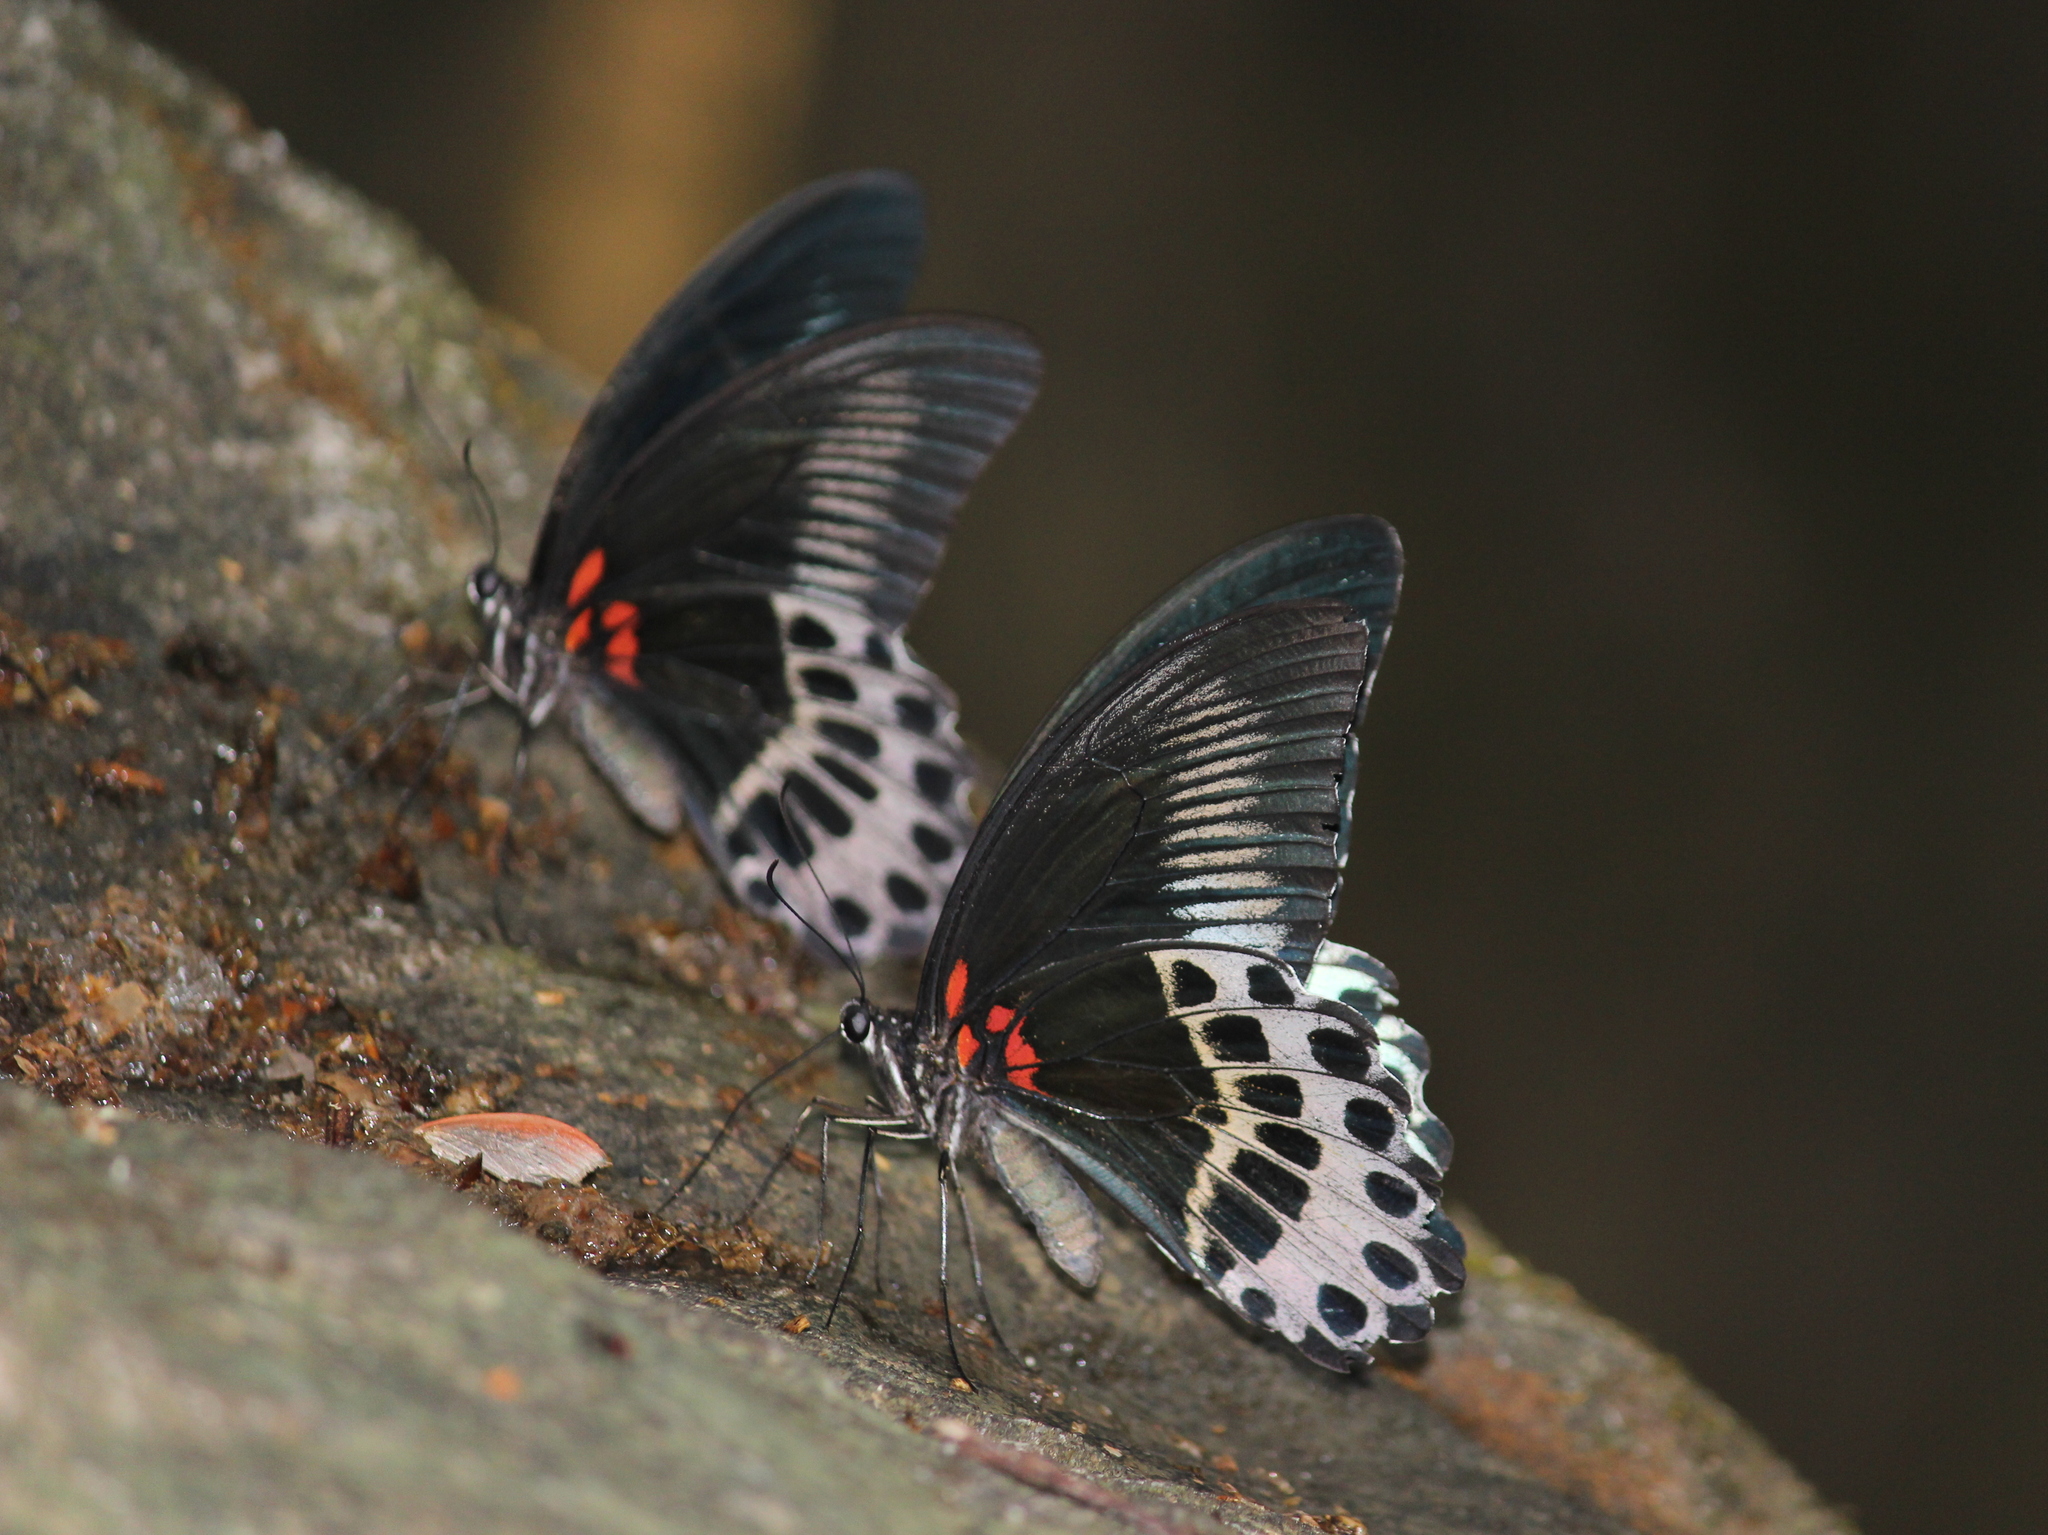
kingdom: Animalia
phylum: Arthropoda
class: Insecta
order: Lepidoptera
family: Papilionidae
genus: Papilio
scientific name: Papilio memnon
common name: Great mormon
